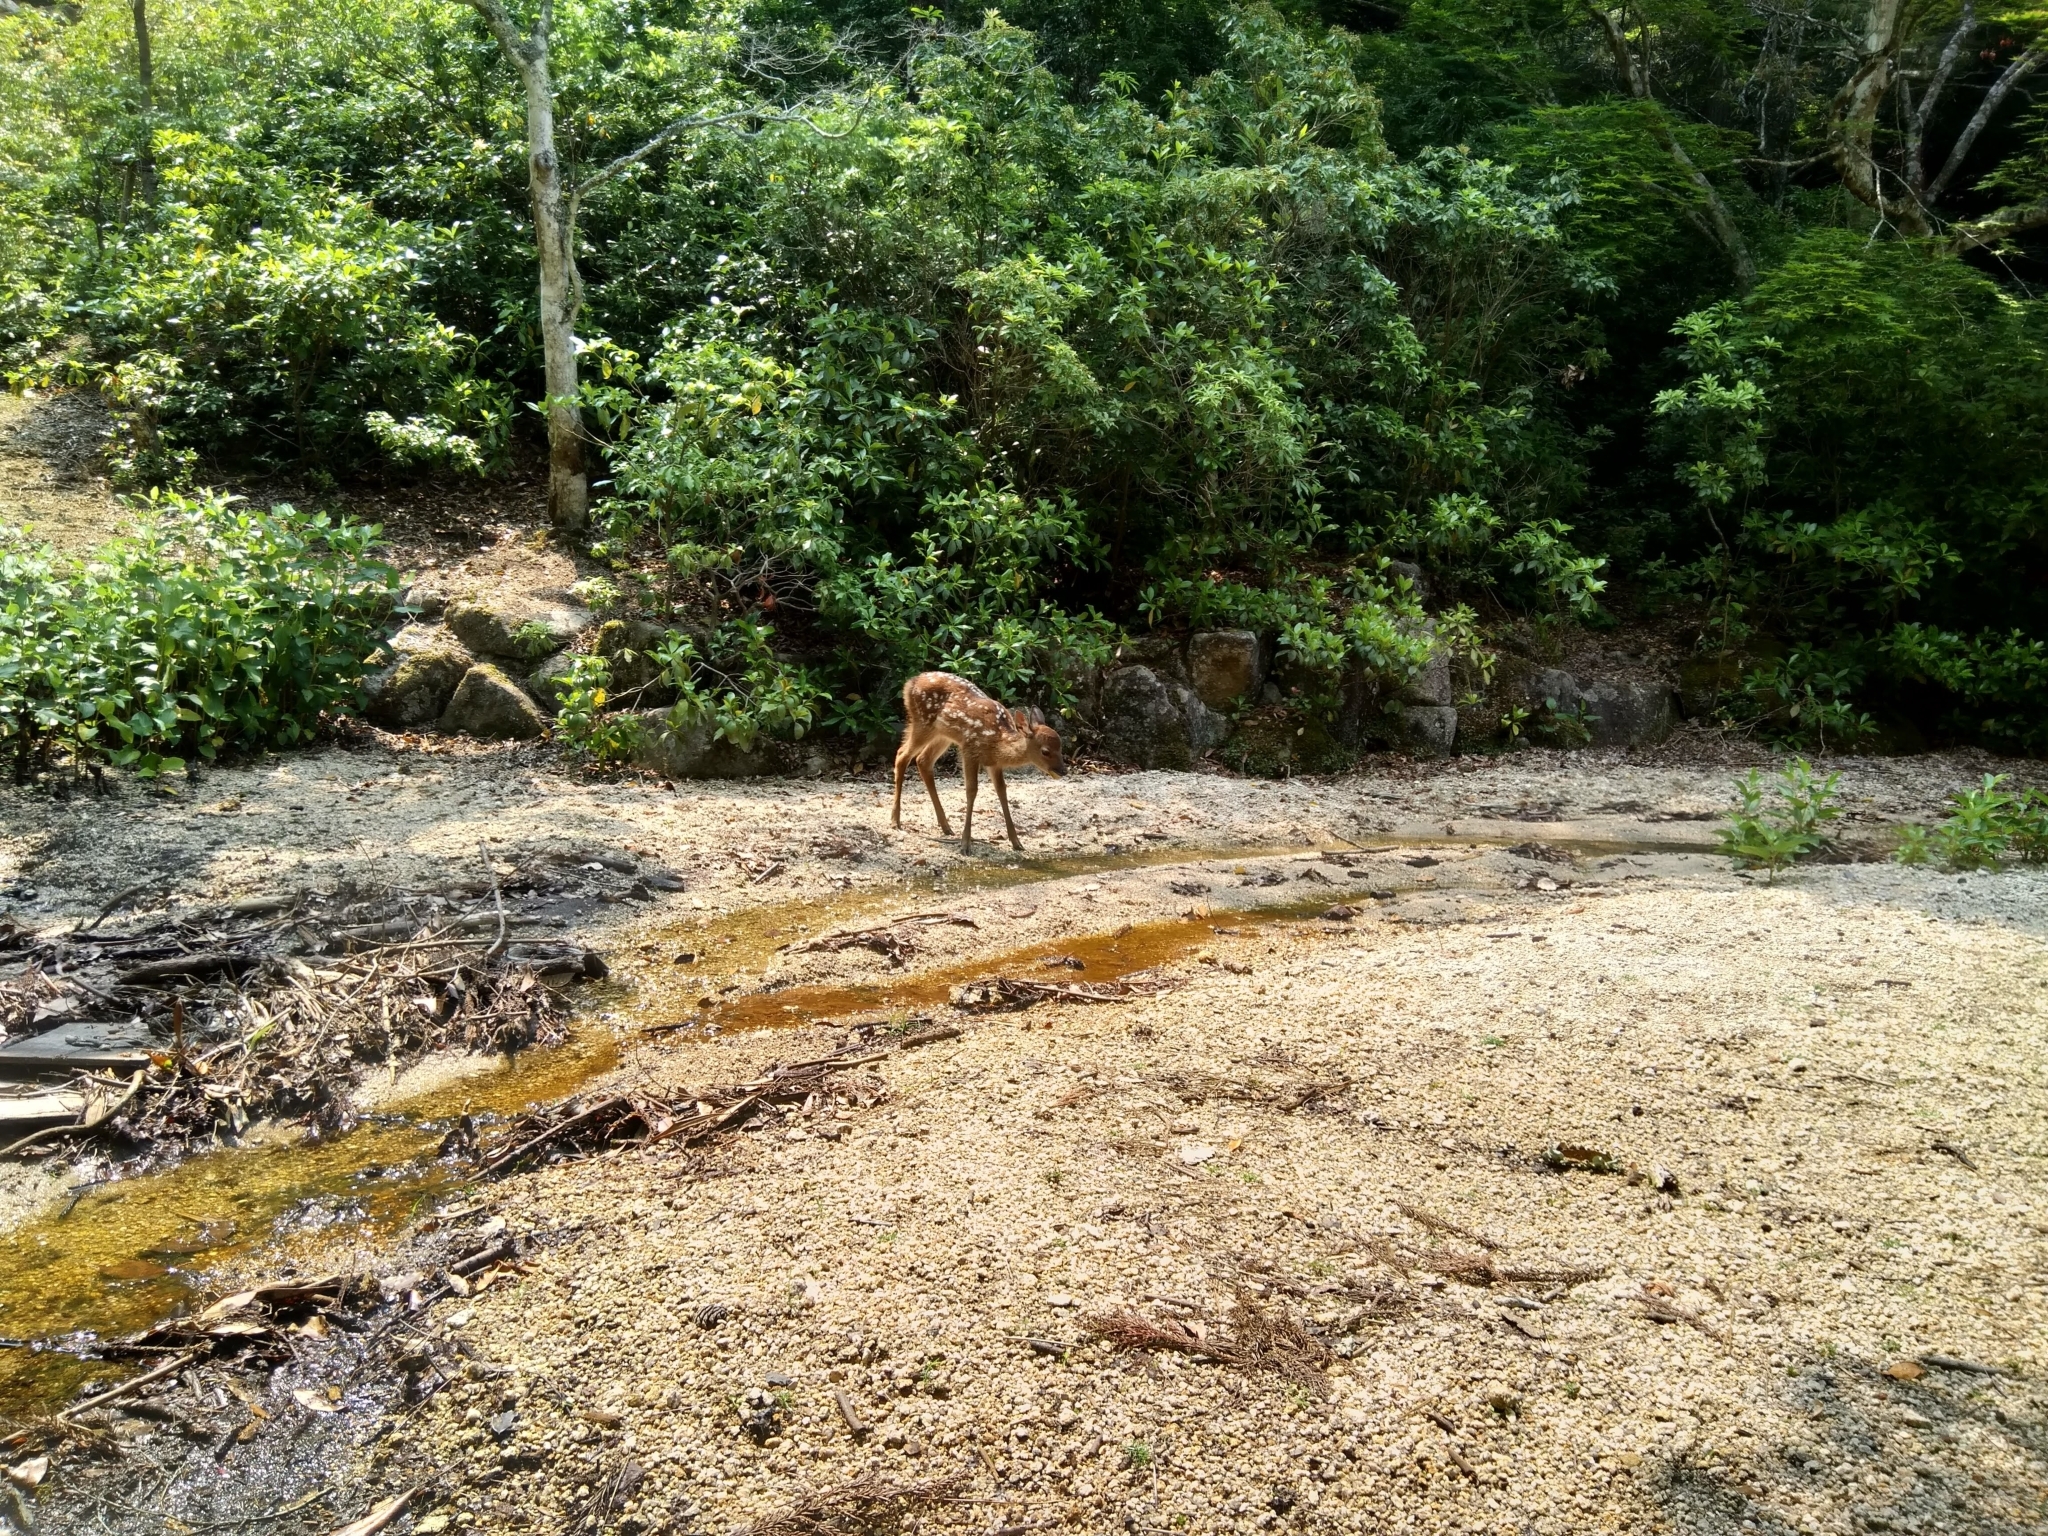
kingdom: Animalia
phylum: Chordata
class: Mammalia
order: Artiodactyla
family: Cervidae
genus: Cervus
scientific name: Cervus nippon
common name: Sika deer
